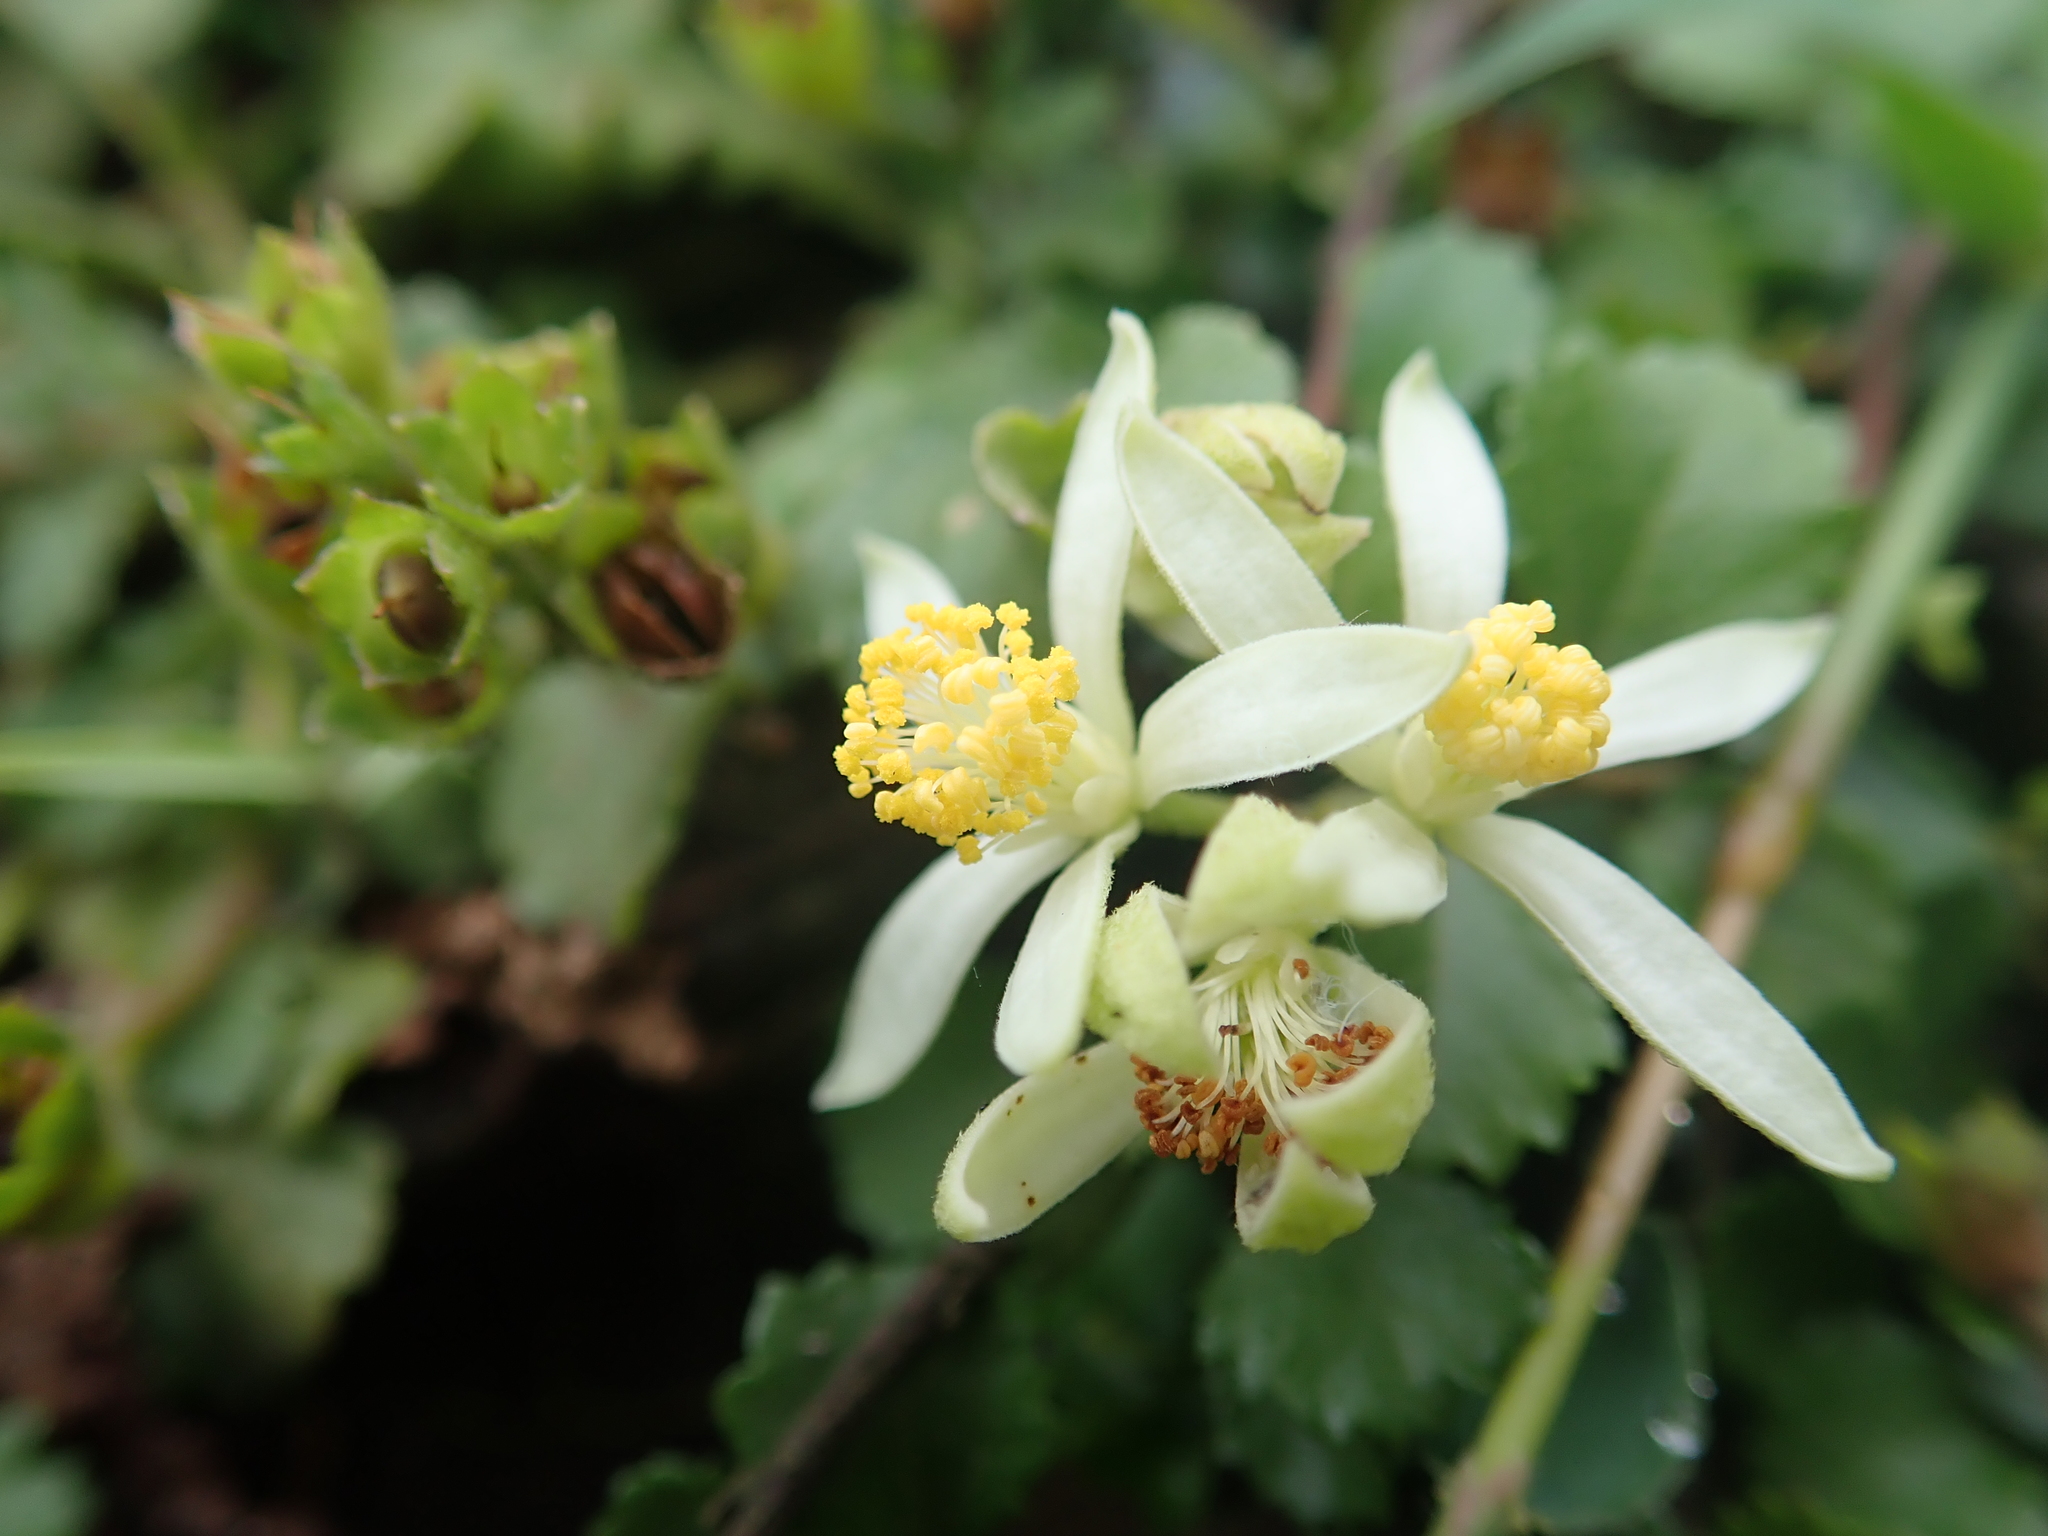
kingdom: Plantae
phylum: Tracheophyta
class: Magnoliopsida
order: Malvales
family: Malvaceae
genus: Grewia
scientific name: Grewia piscatorum
